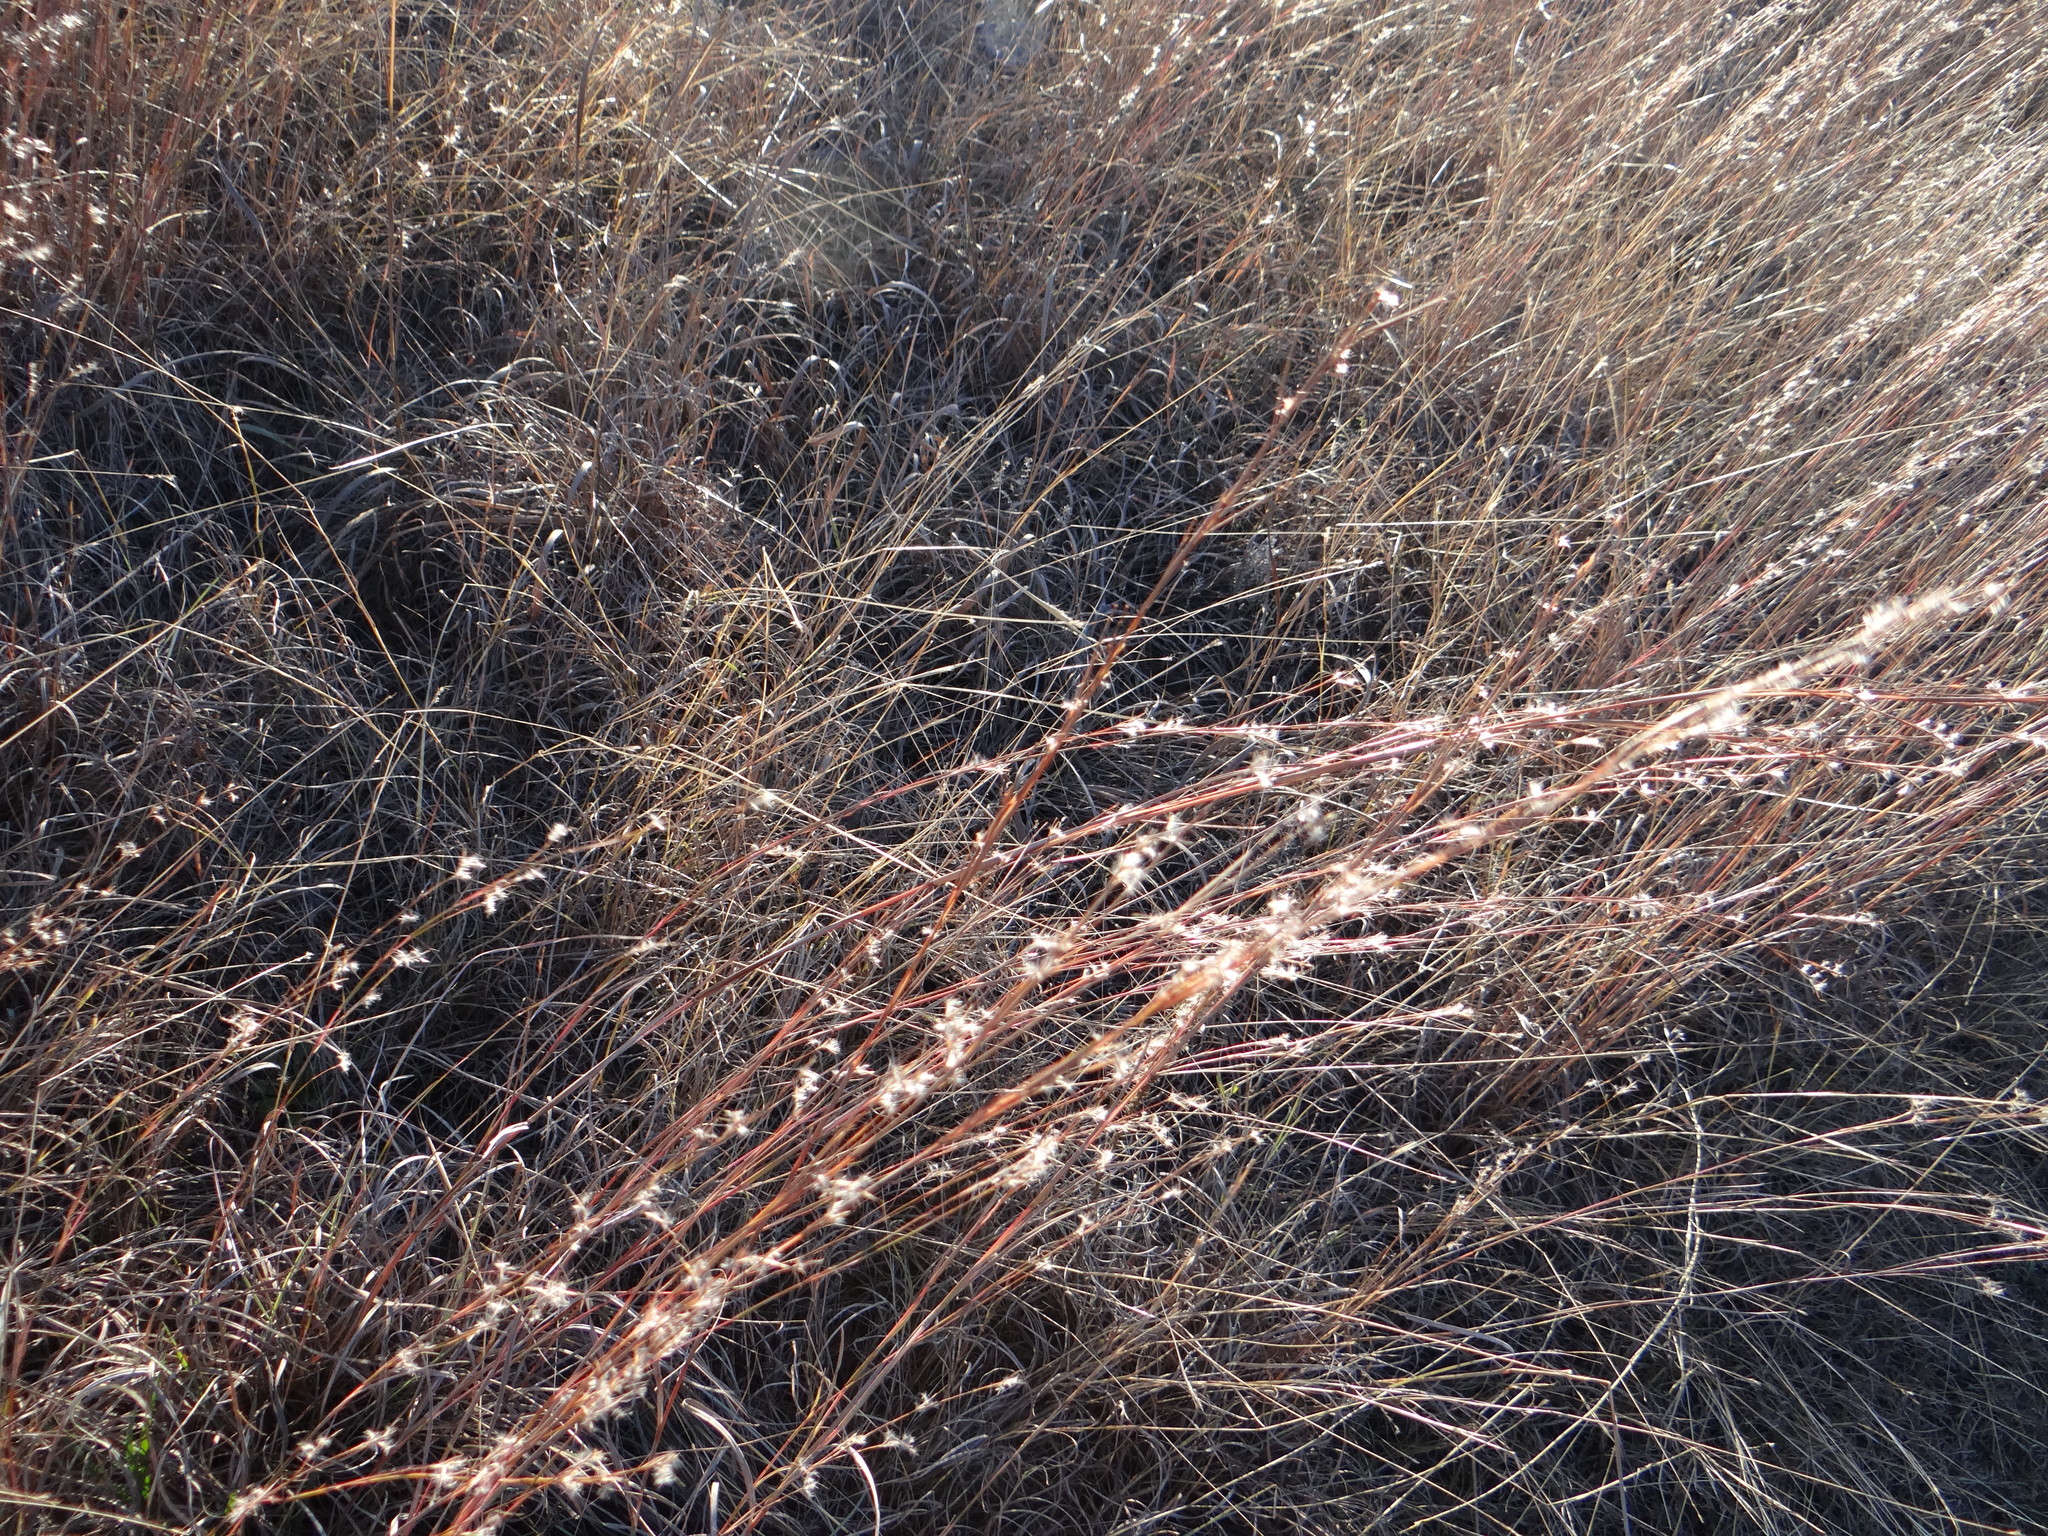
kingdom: Plantae
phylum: Tracheophyta
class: Liliopsida
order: Poales
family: Poaceae
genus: Schizachyrium
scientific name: Schizachyrium scoparium
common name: Little bluestem
